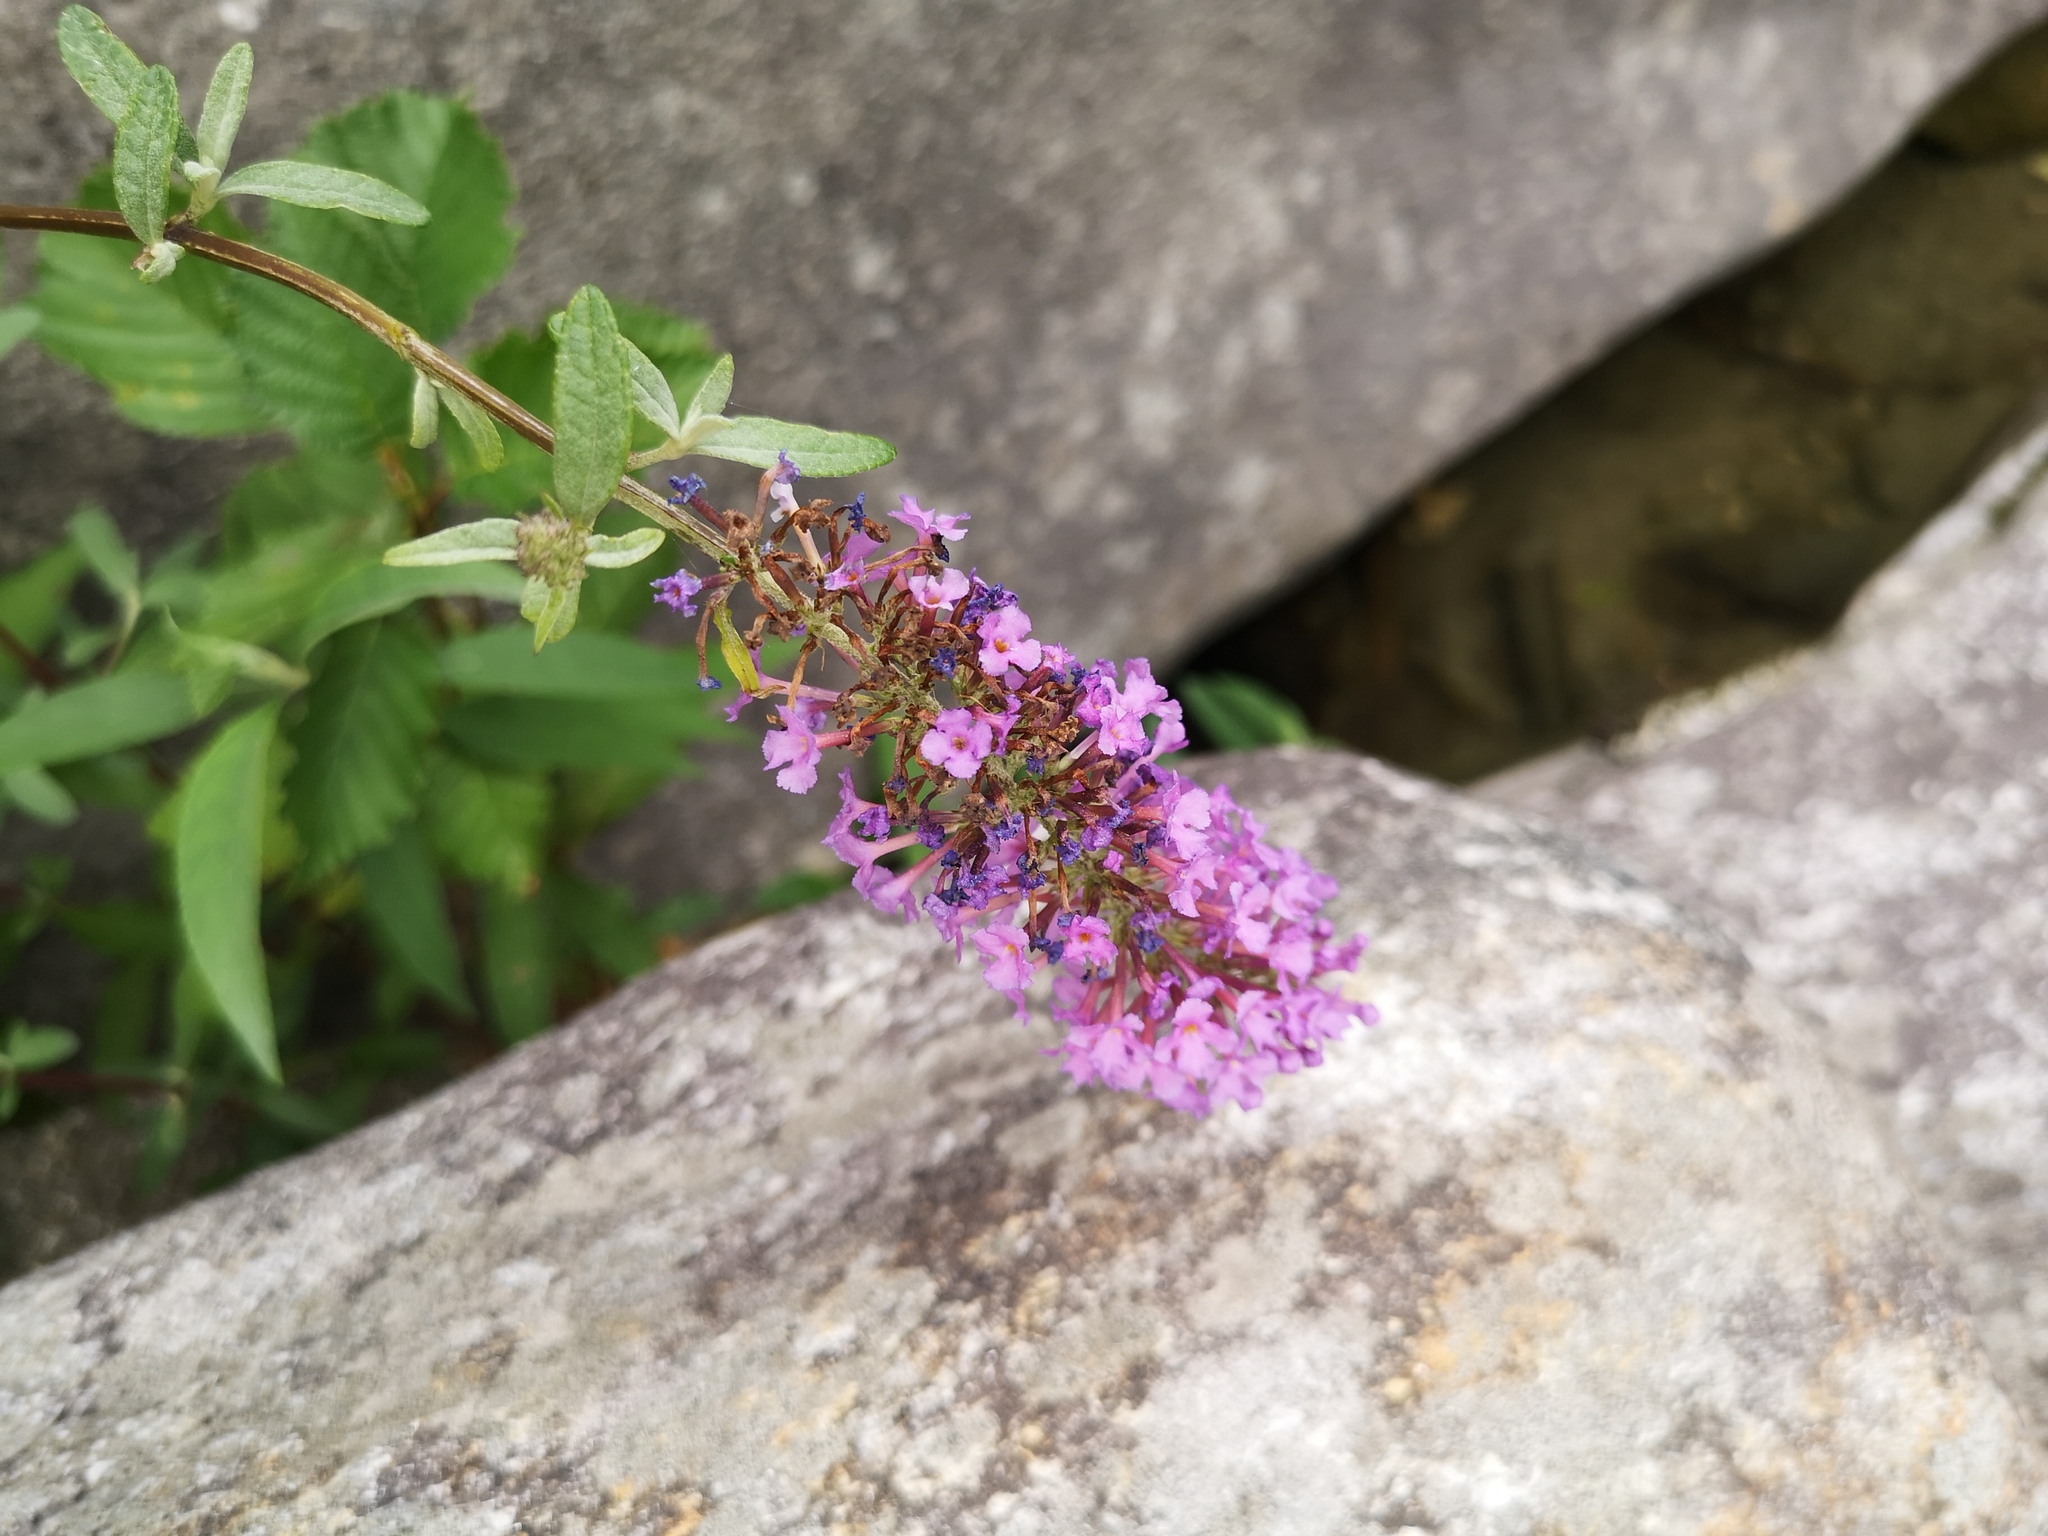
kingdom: Plantae
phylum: Tracheophyta
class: Magnoliopsida
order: Lamiales
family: Scrophulariaceae
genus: Buddleja
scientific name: Buddleja davidii
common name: Butterfly-bush
